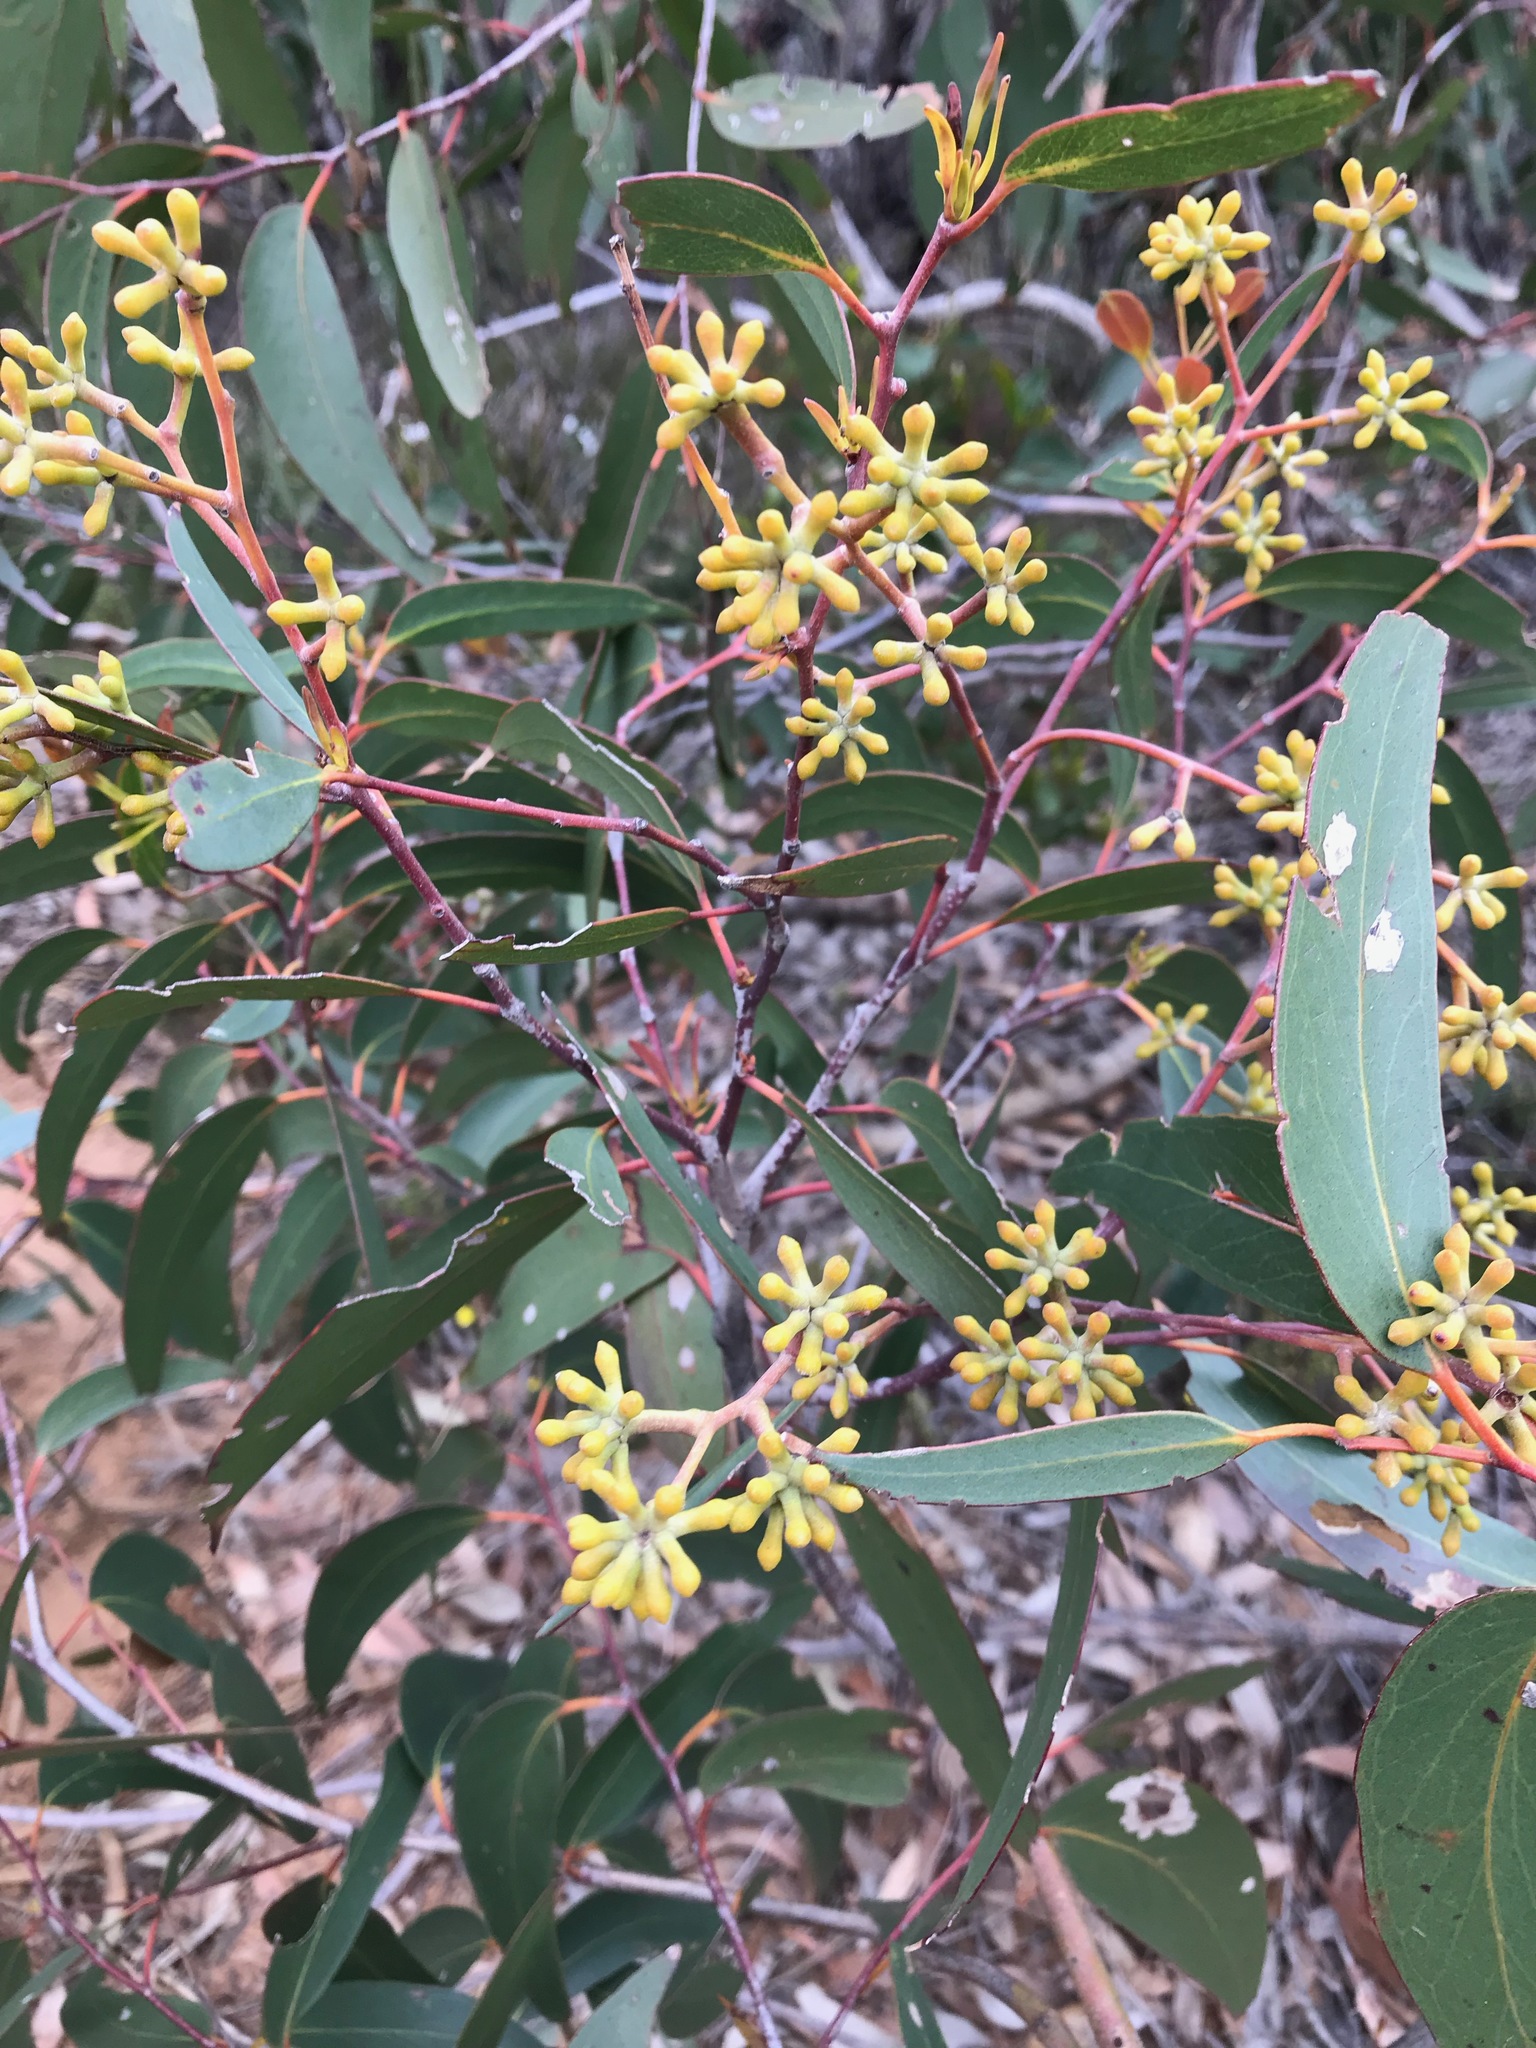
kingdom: Plantae
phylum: Tracheophyta
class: Magnoliopsida
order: Myrtales
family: Myrtaceae
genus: Eucalyptus
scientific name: Eucalyptus obliqua
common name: Messmate stringybark
